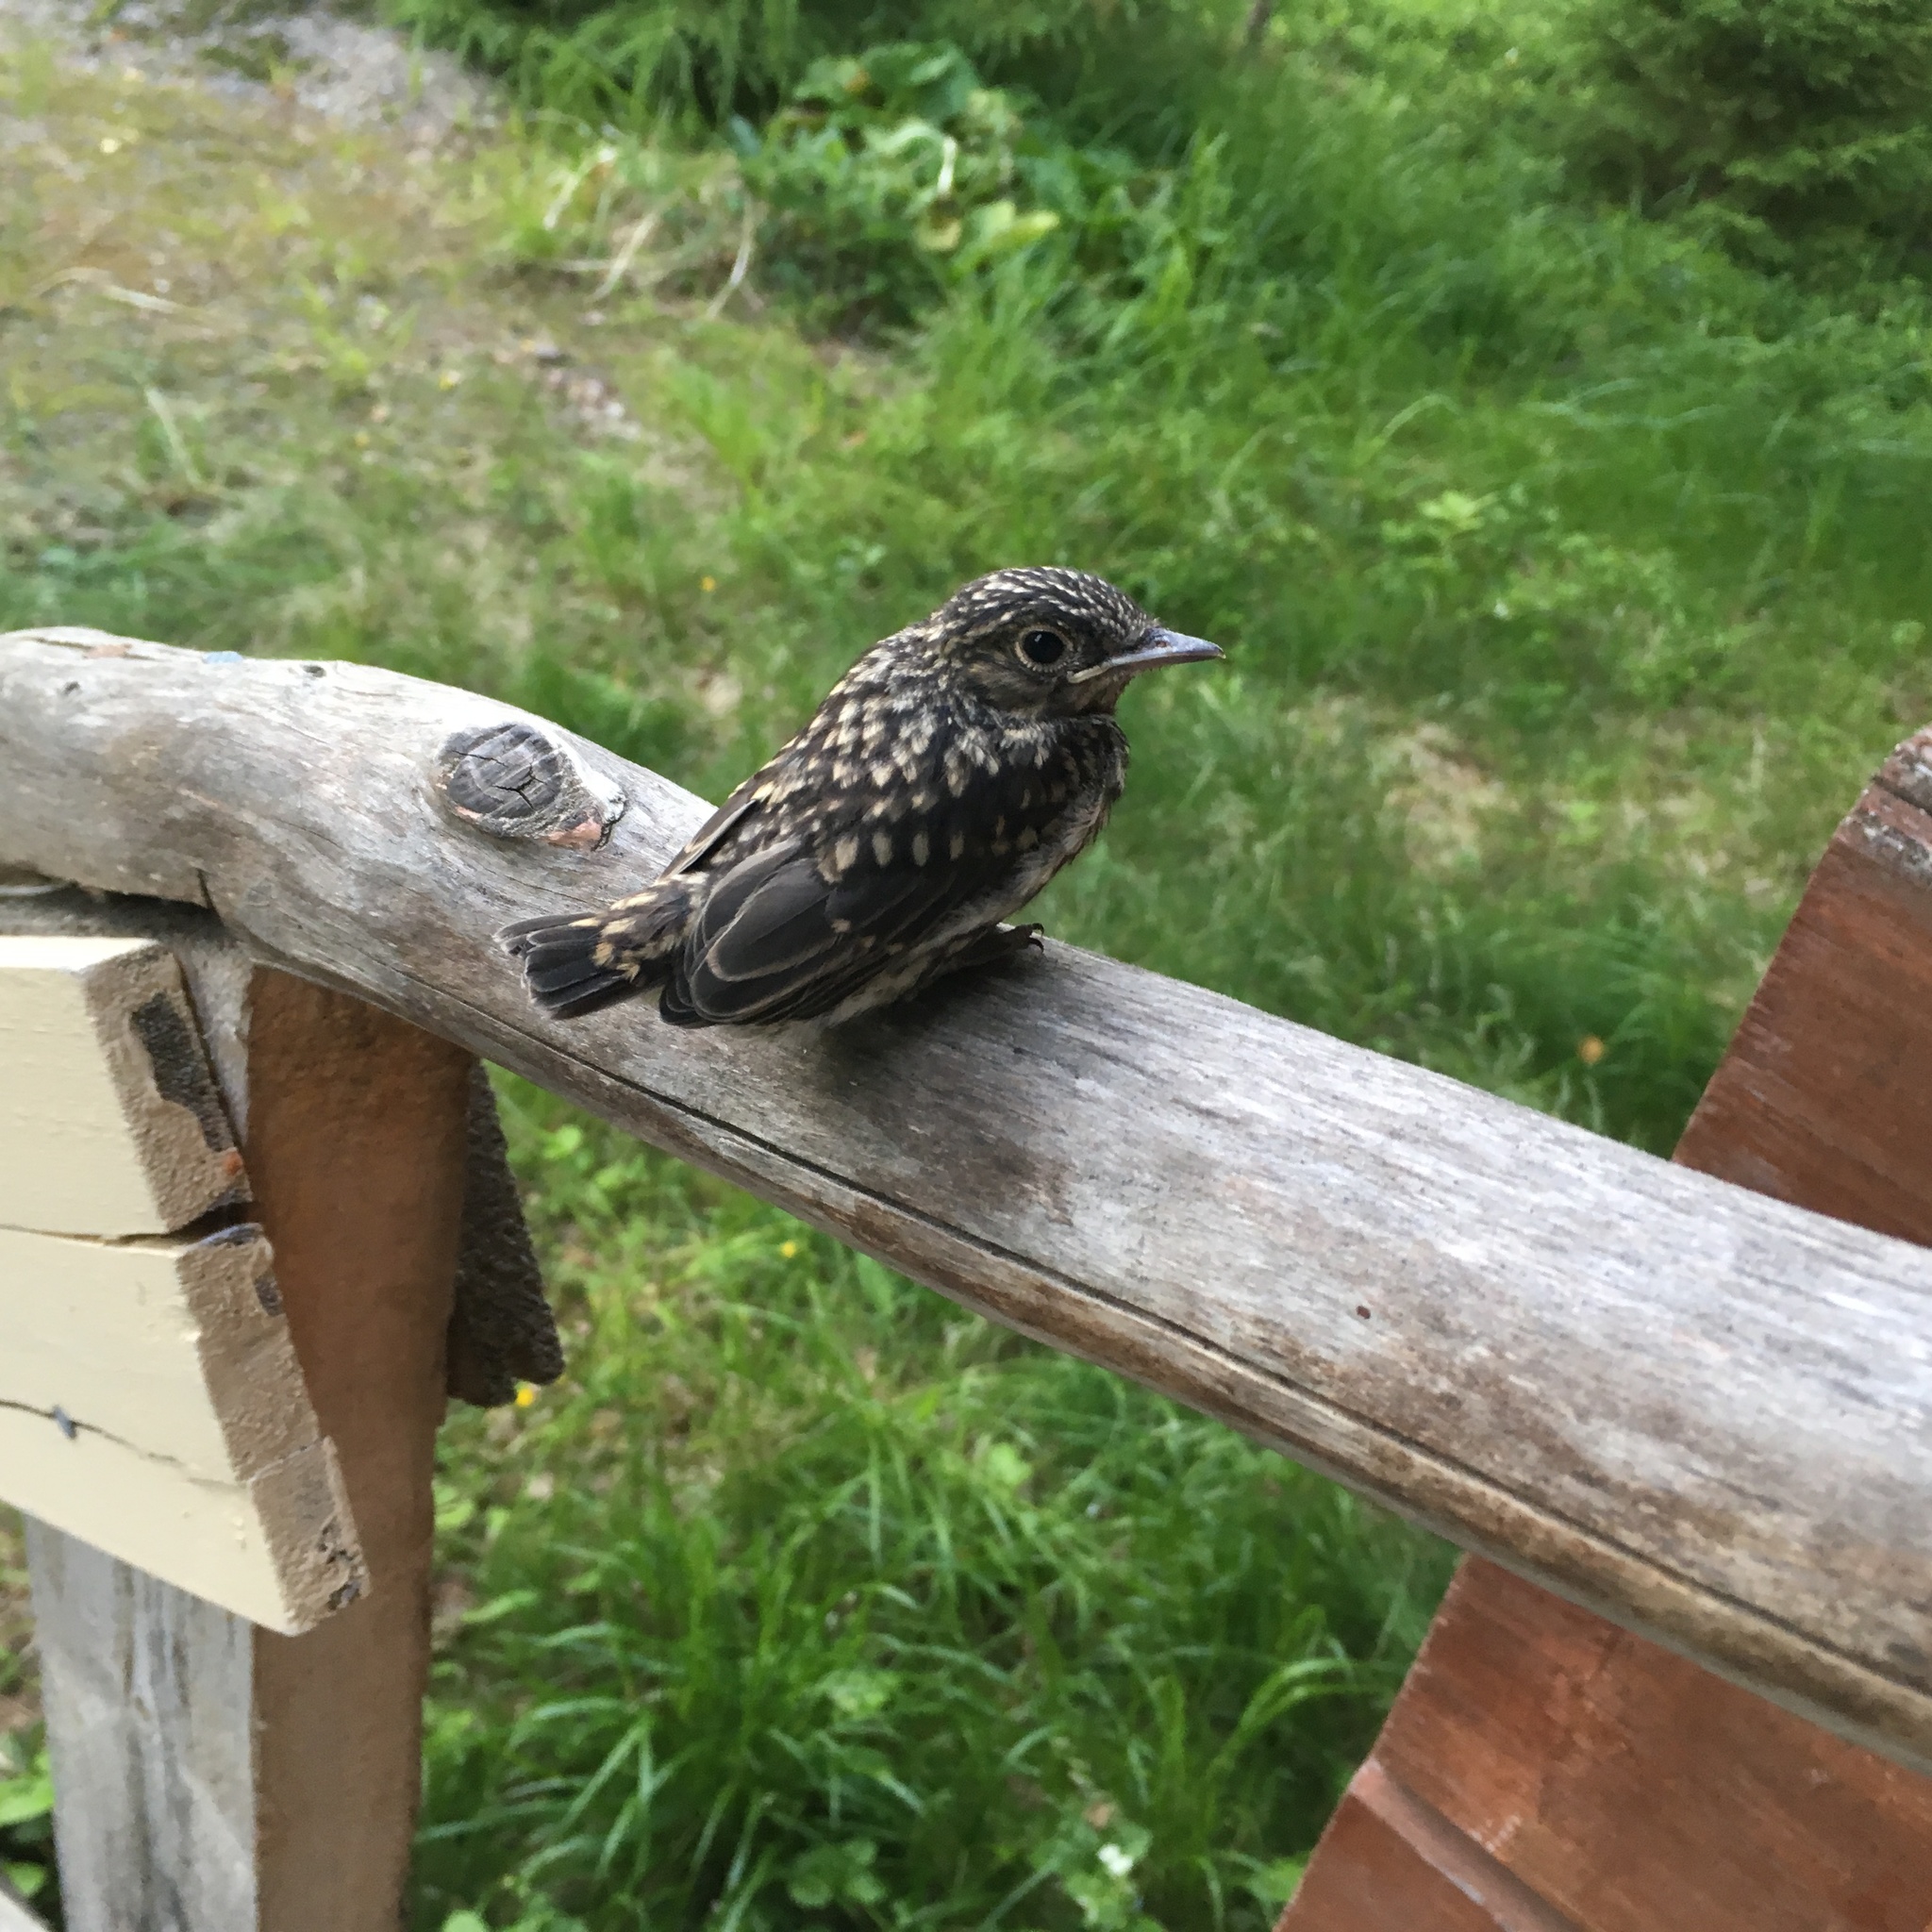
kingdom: Animalia
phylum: Chordata
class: Aves
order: Passeriformes
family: Muscicapidae
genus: Muscicapa
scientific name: Muscicapa striata
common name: Spotted flycatcher
